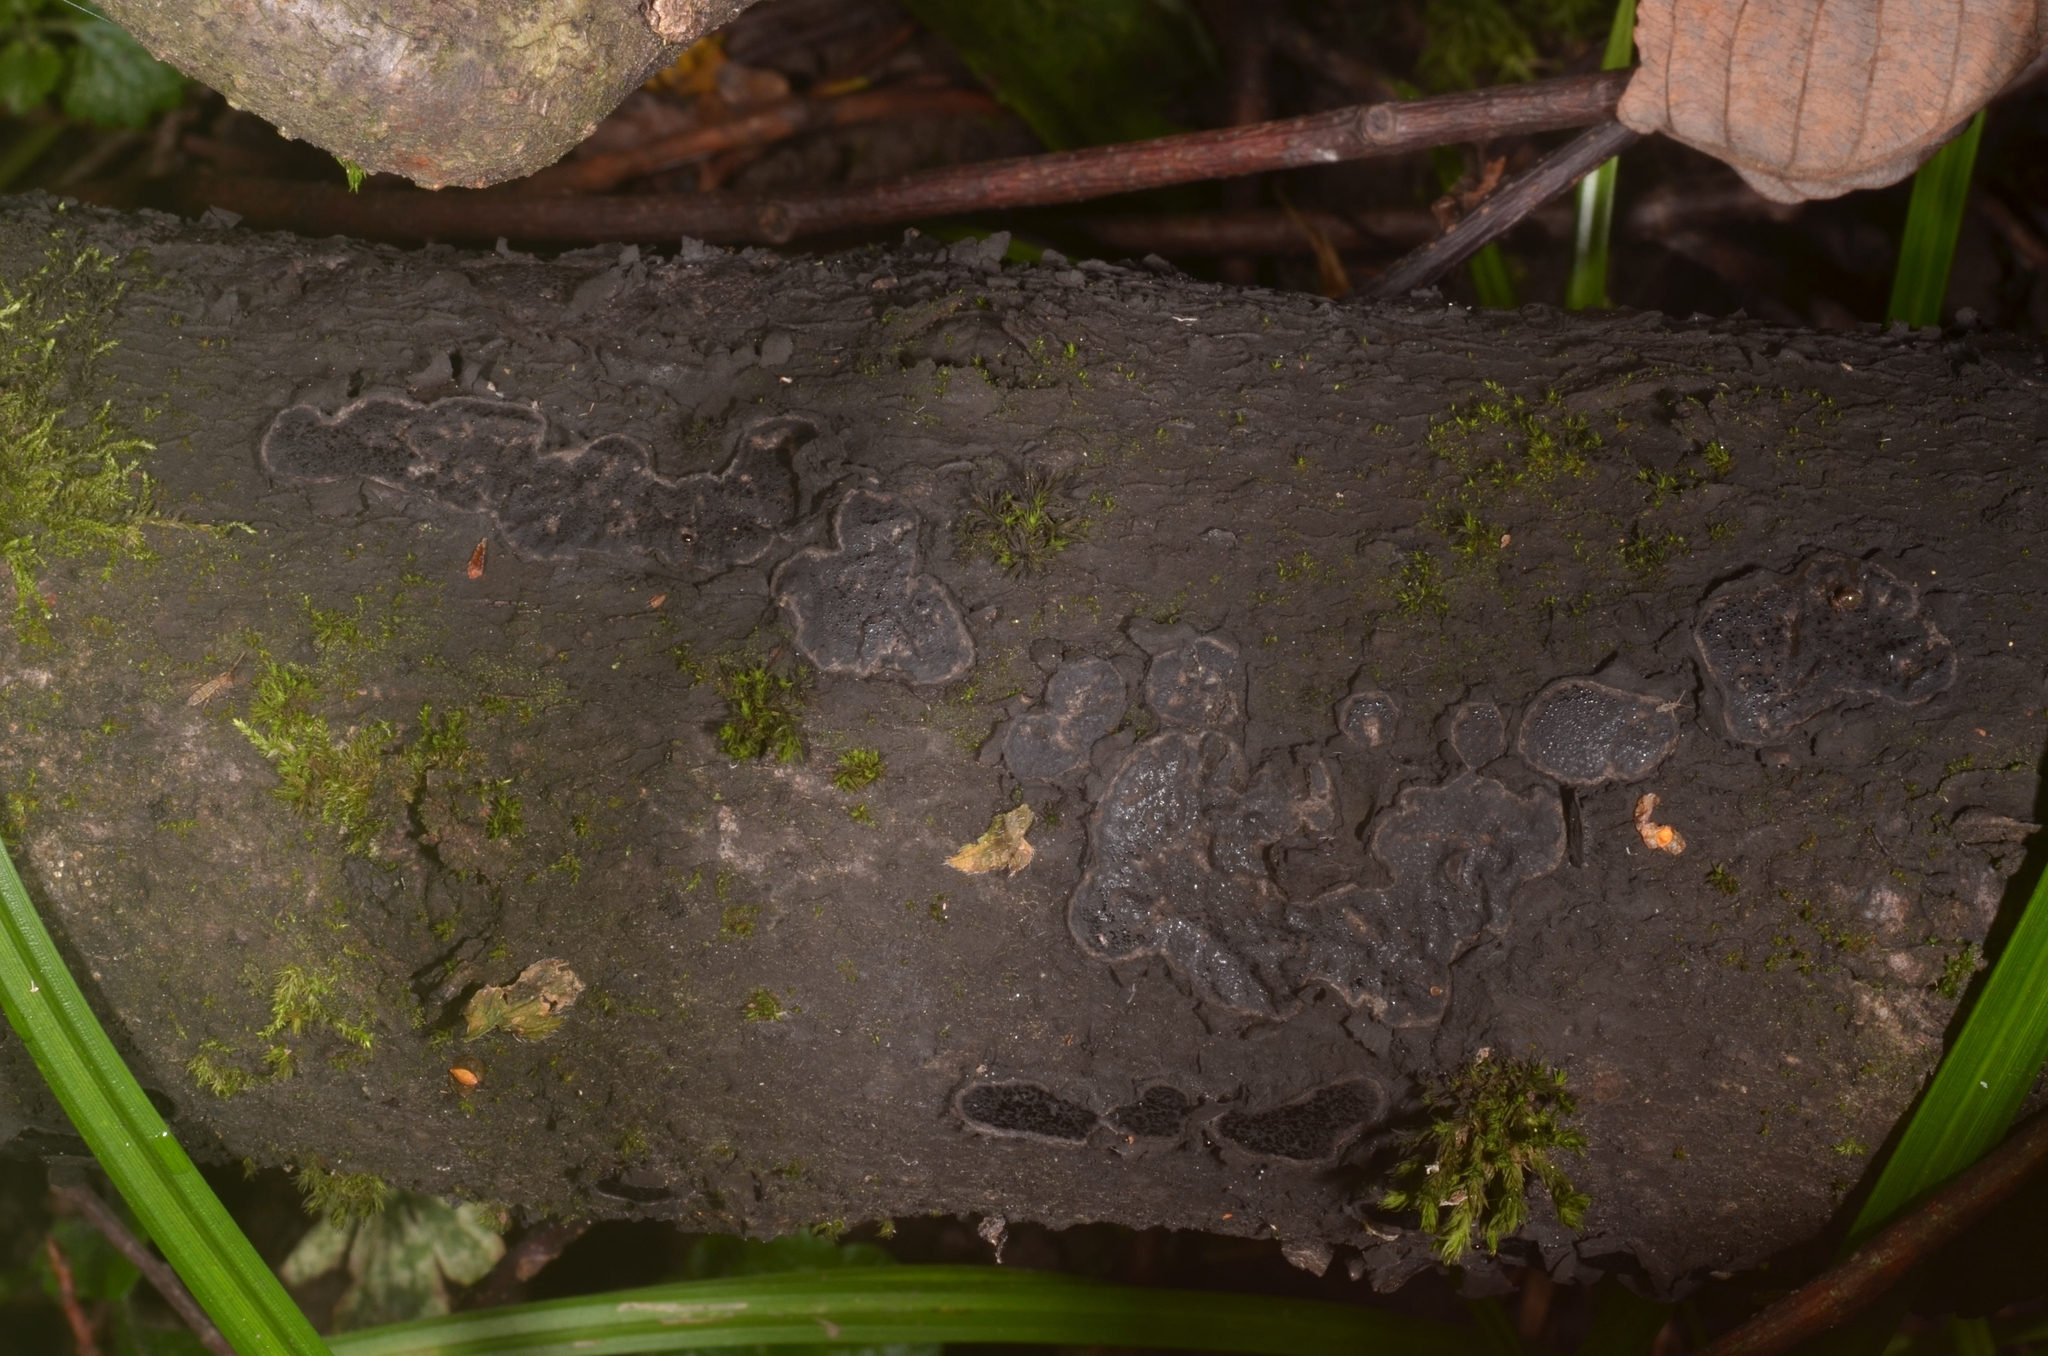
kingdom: Fungi
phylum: Ascomycota
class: Sordariomycetes
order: Xylariales
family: Graphostromataceae
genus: Biscogniauxia
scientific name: Biscogniauxia granmoi
